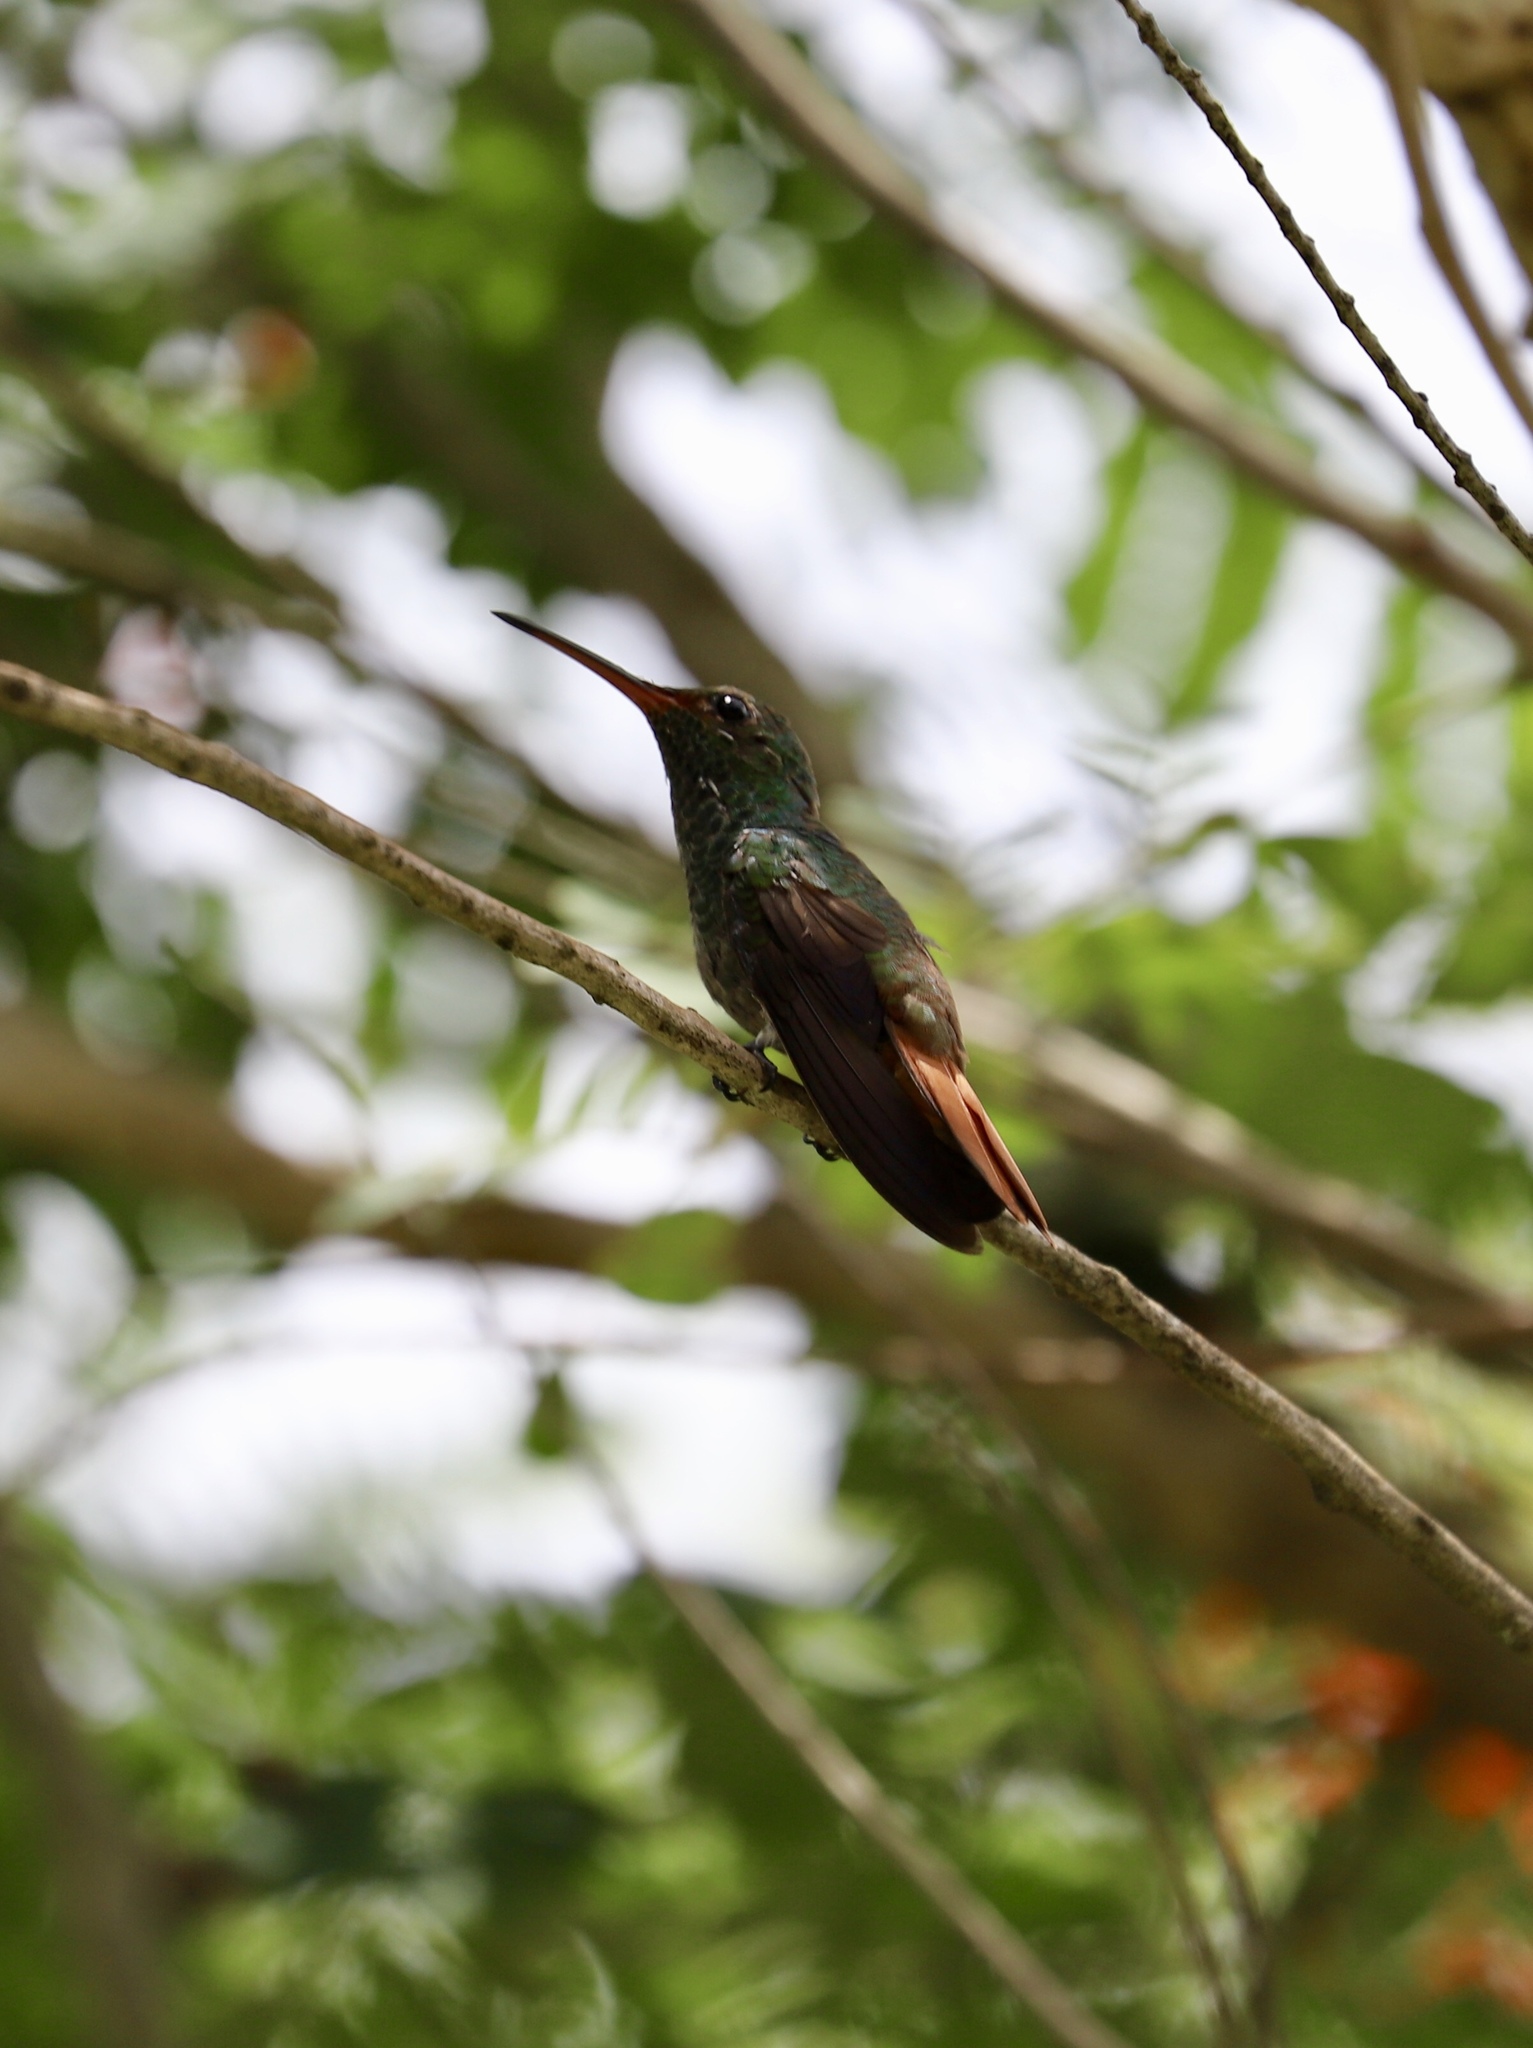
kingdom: Animalia
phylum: Chordata
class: Aves
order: Apodiformes
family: Trochilidae
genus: Amazilia
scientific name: Amazilia tzacatl
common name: Rufous-tailed hummingbird
